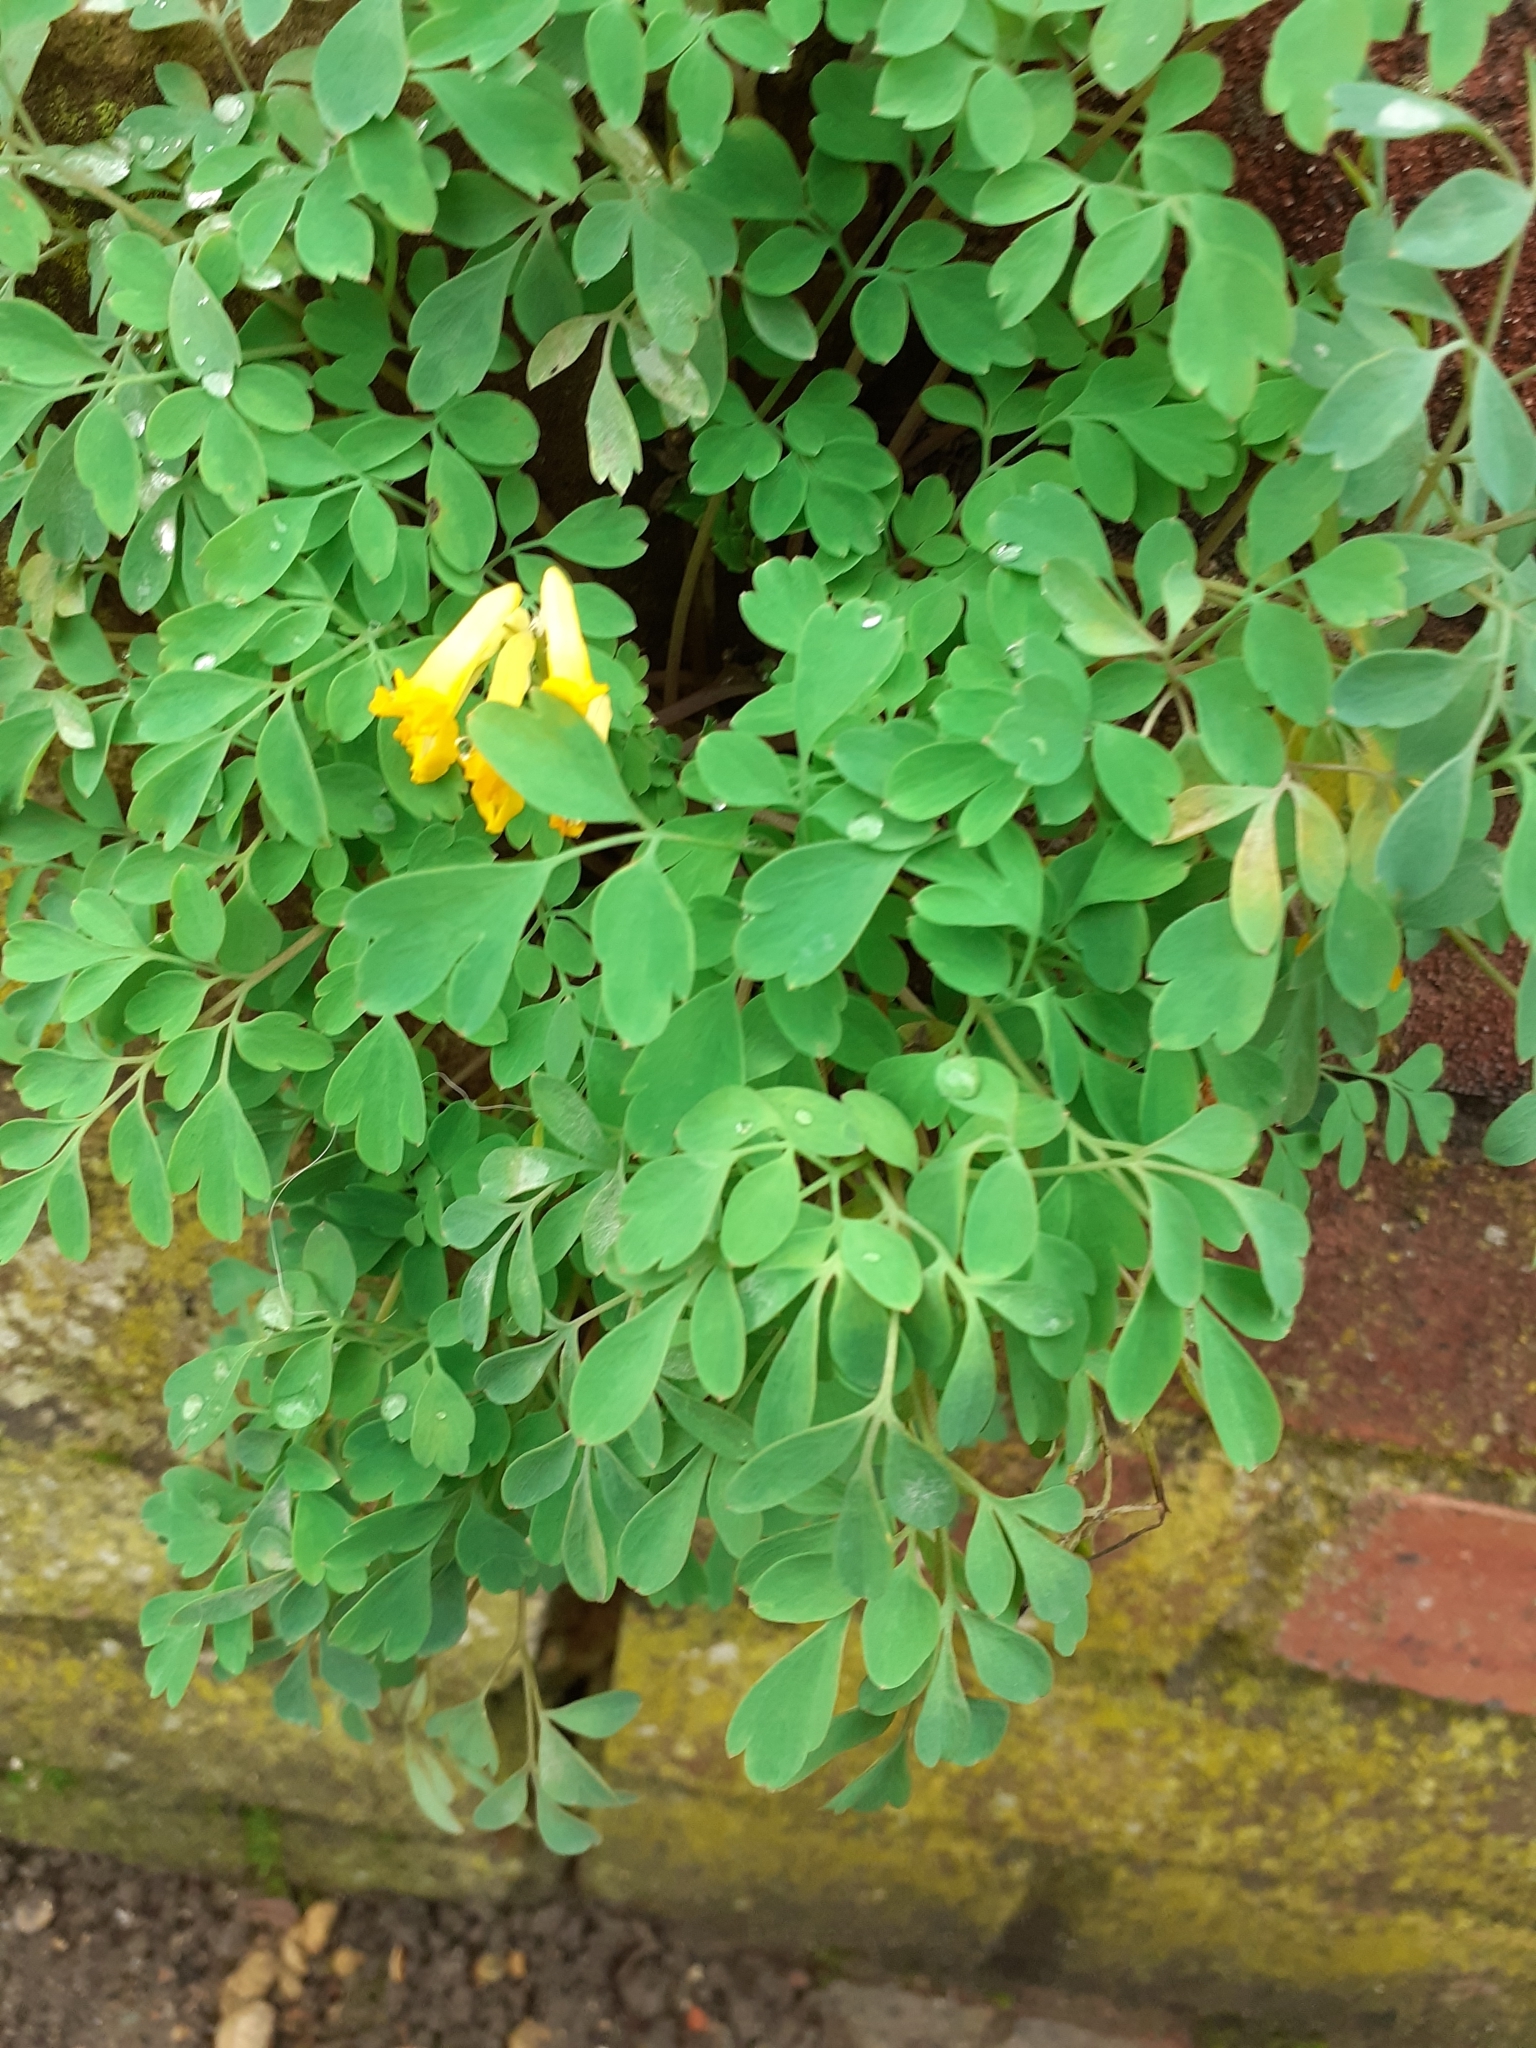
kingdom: Plantae
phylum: Tracheophyta
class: Magnoliopsida
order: Ranunculales
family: Papaveraceae
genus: Pseudofumaria
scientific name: Pseudofumaria lutea
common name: Yellow corydalis
